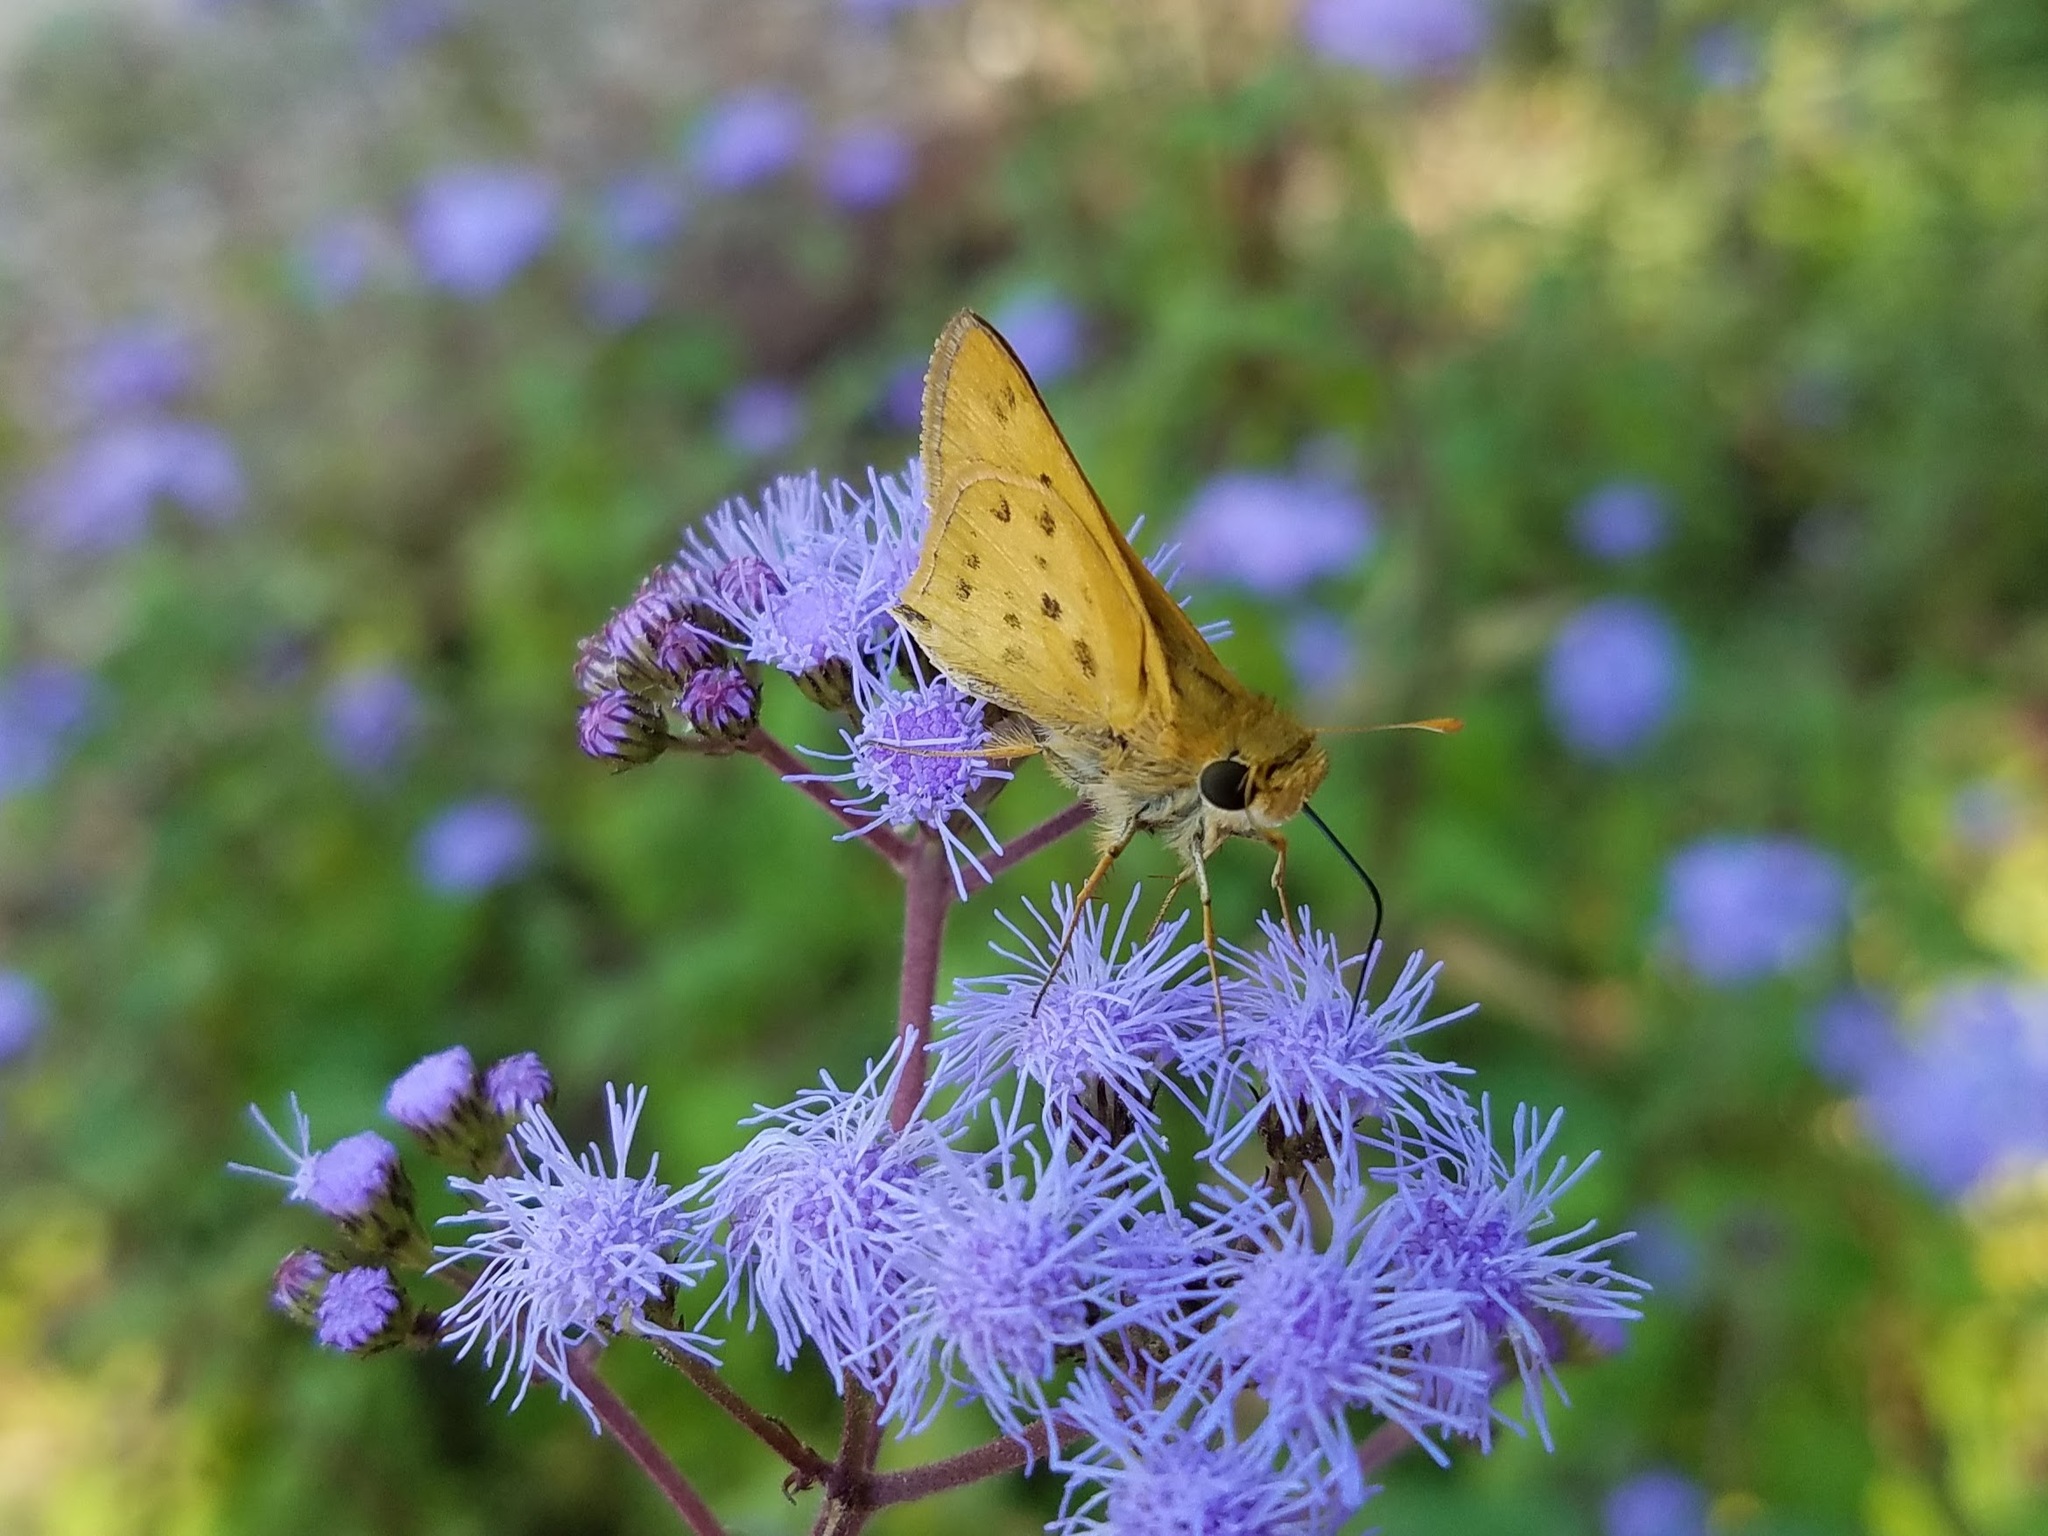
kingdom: Animalia
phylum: Arthropoda
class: Insecta
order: Lepidoptera
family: Hesperiidae
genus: Hylephila
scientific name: Hylephila phyleus
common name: Fiery skipper
